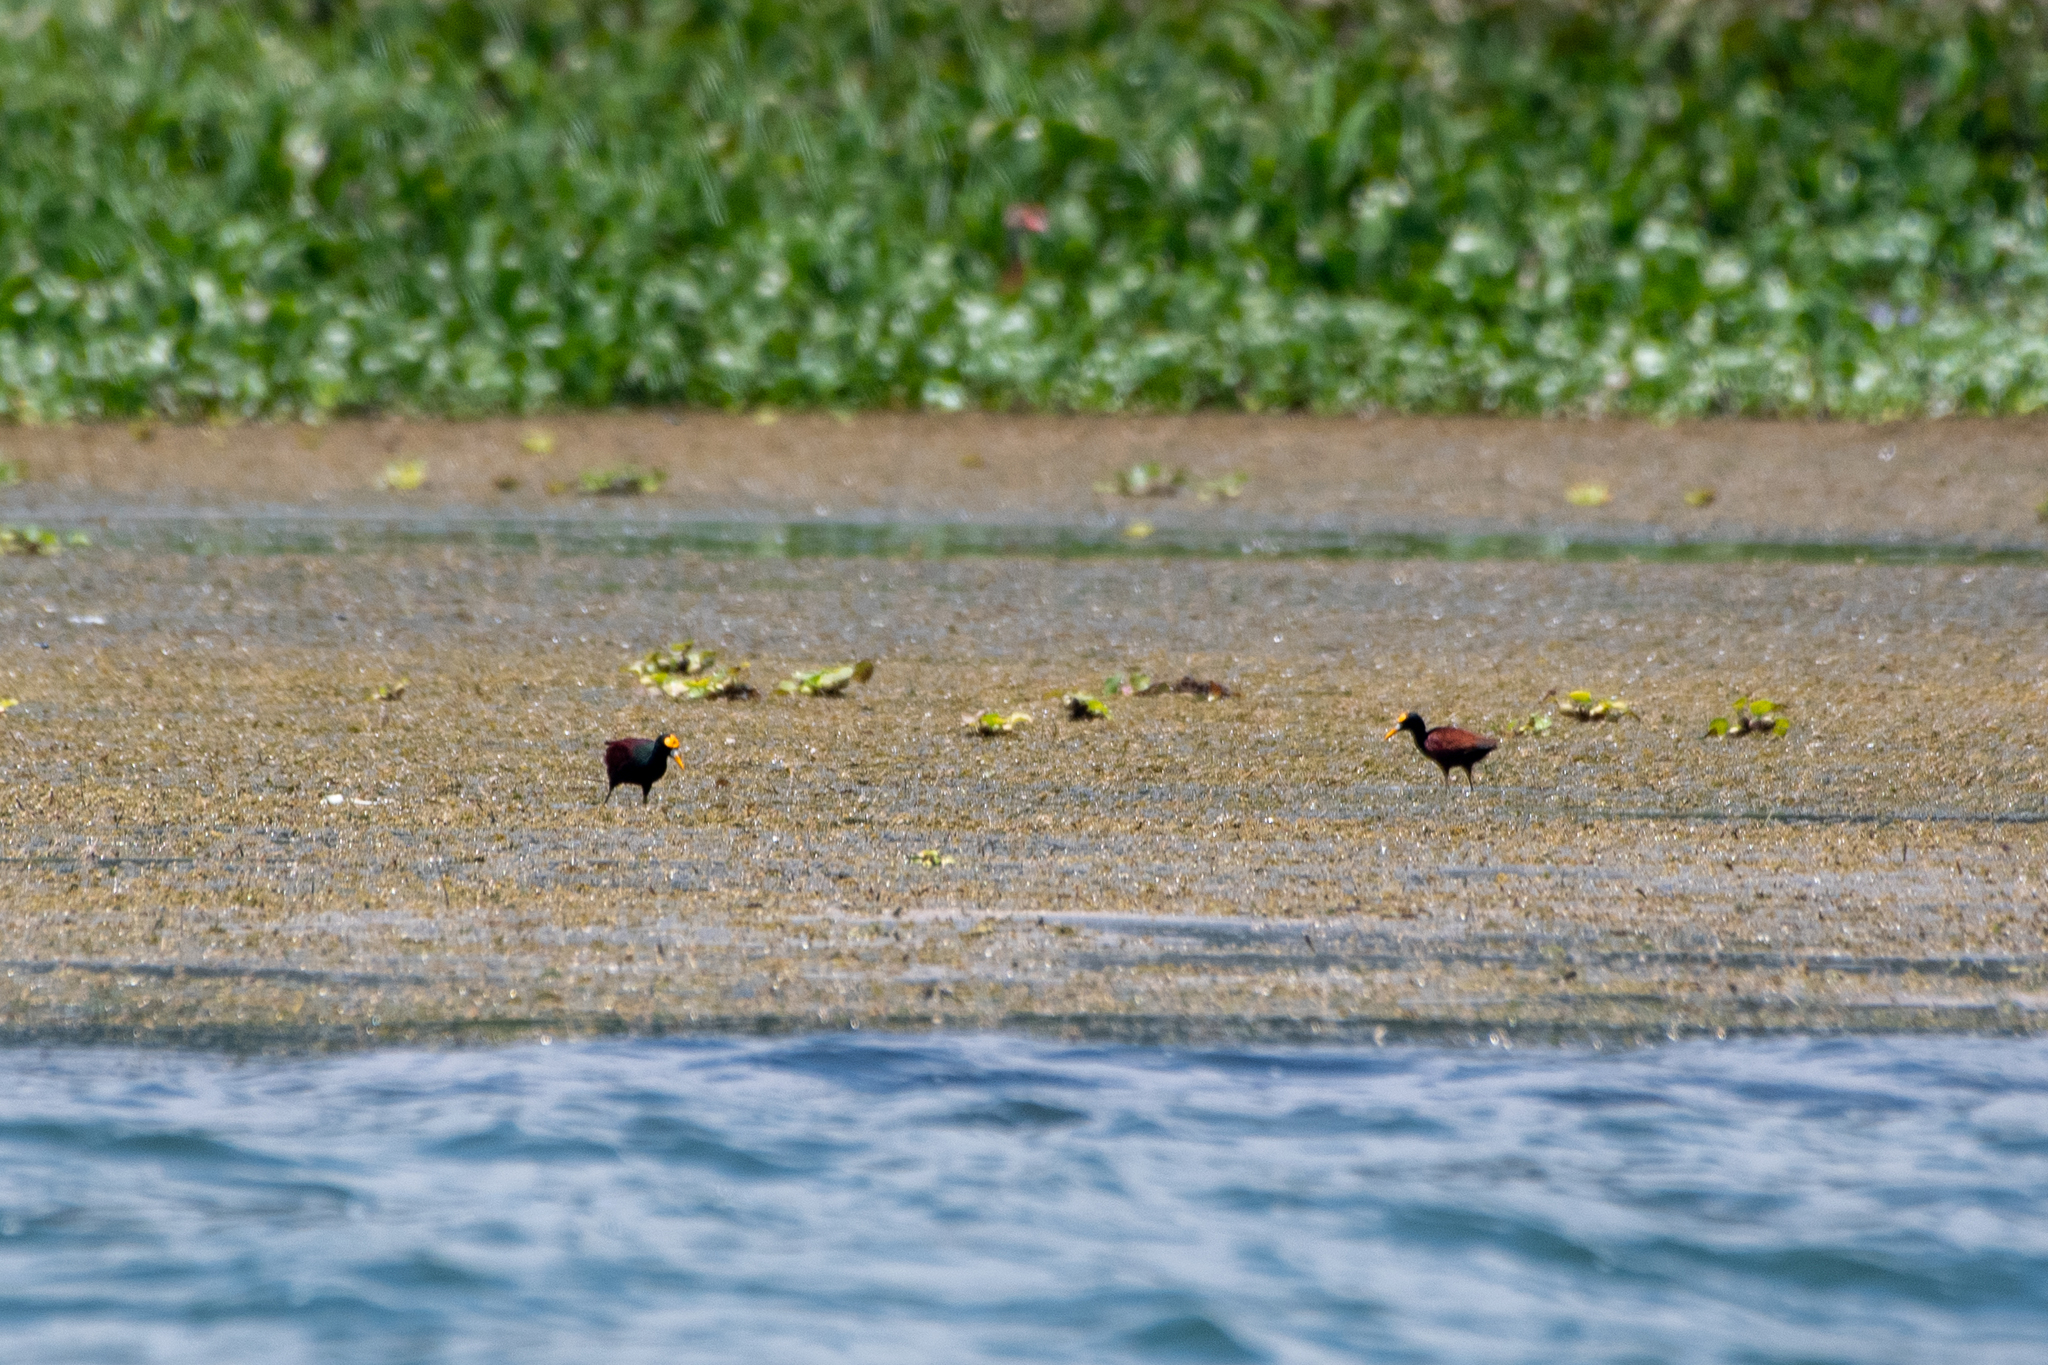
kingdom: Animalia
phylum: Chordata
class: Aves
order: Charadriiformes
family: Jacanidae
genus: Jacana
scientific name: Jacana spinosa
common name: Northern jacana
